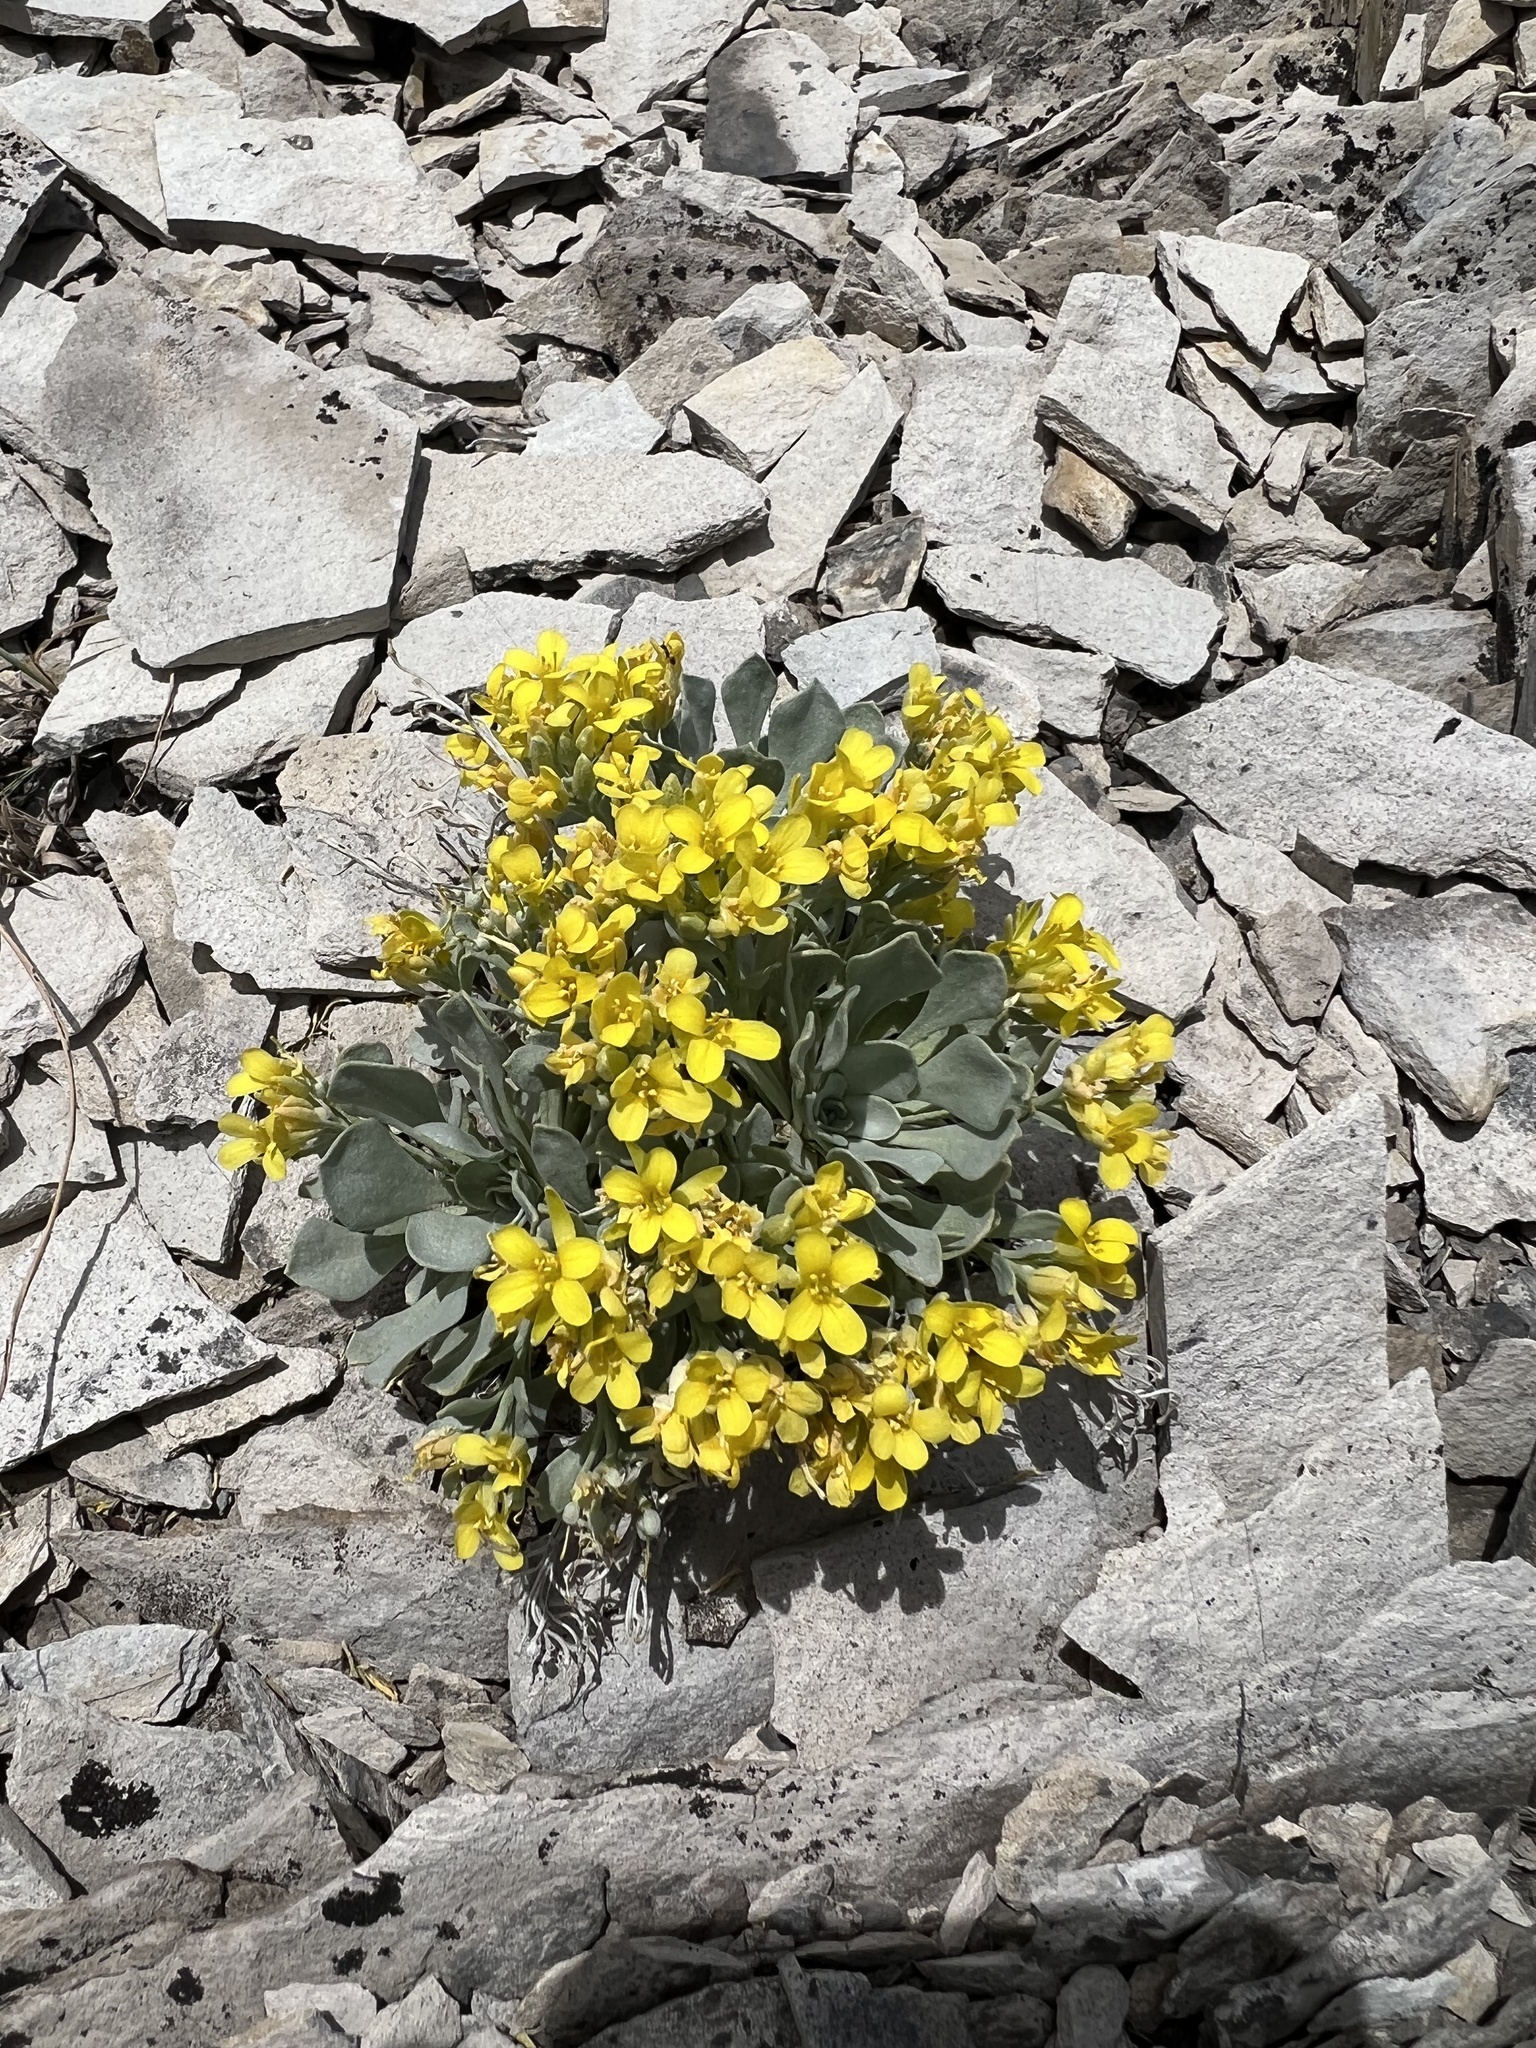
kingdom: Plantae
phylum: Tracheophyta
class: Magnoliopsida
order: Brassicales
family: Brassicaceae
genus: Physaria
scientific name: Physaria bellii
